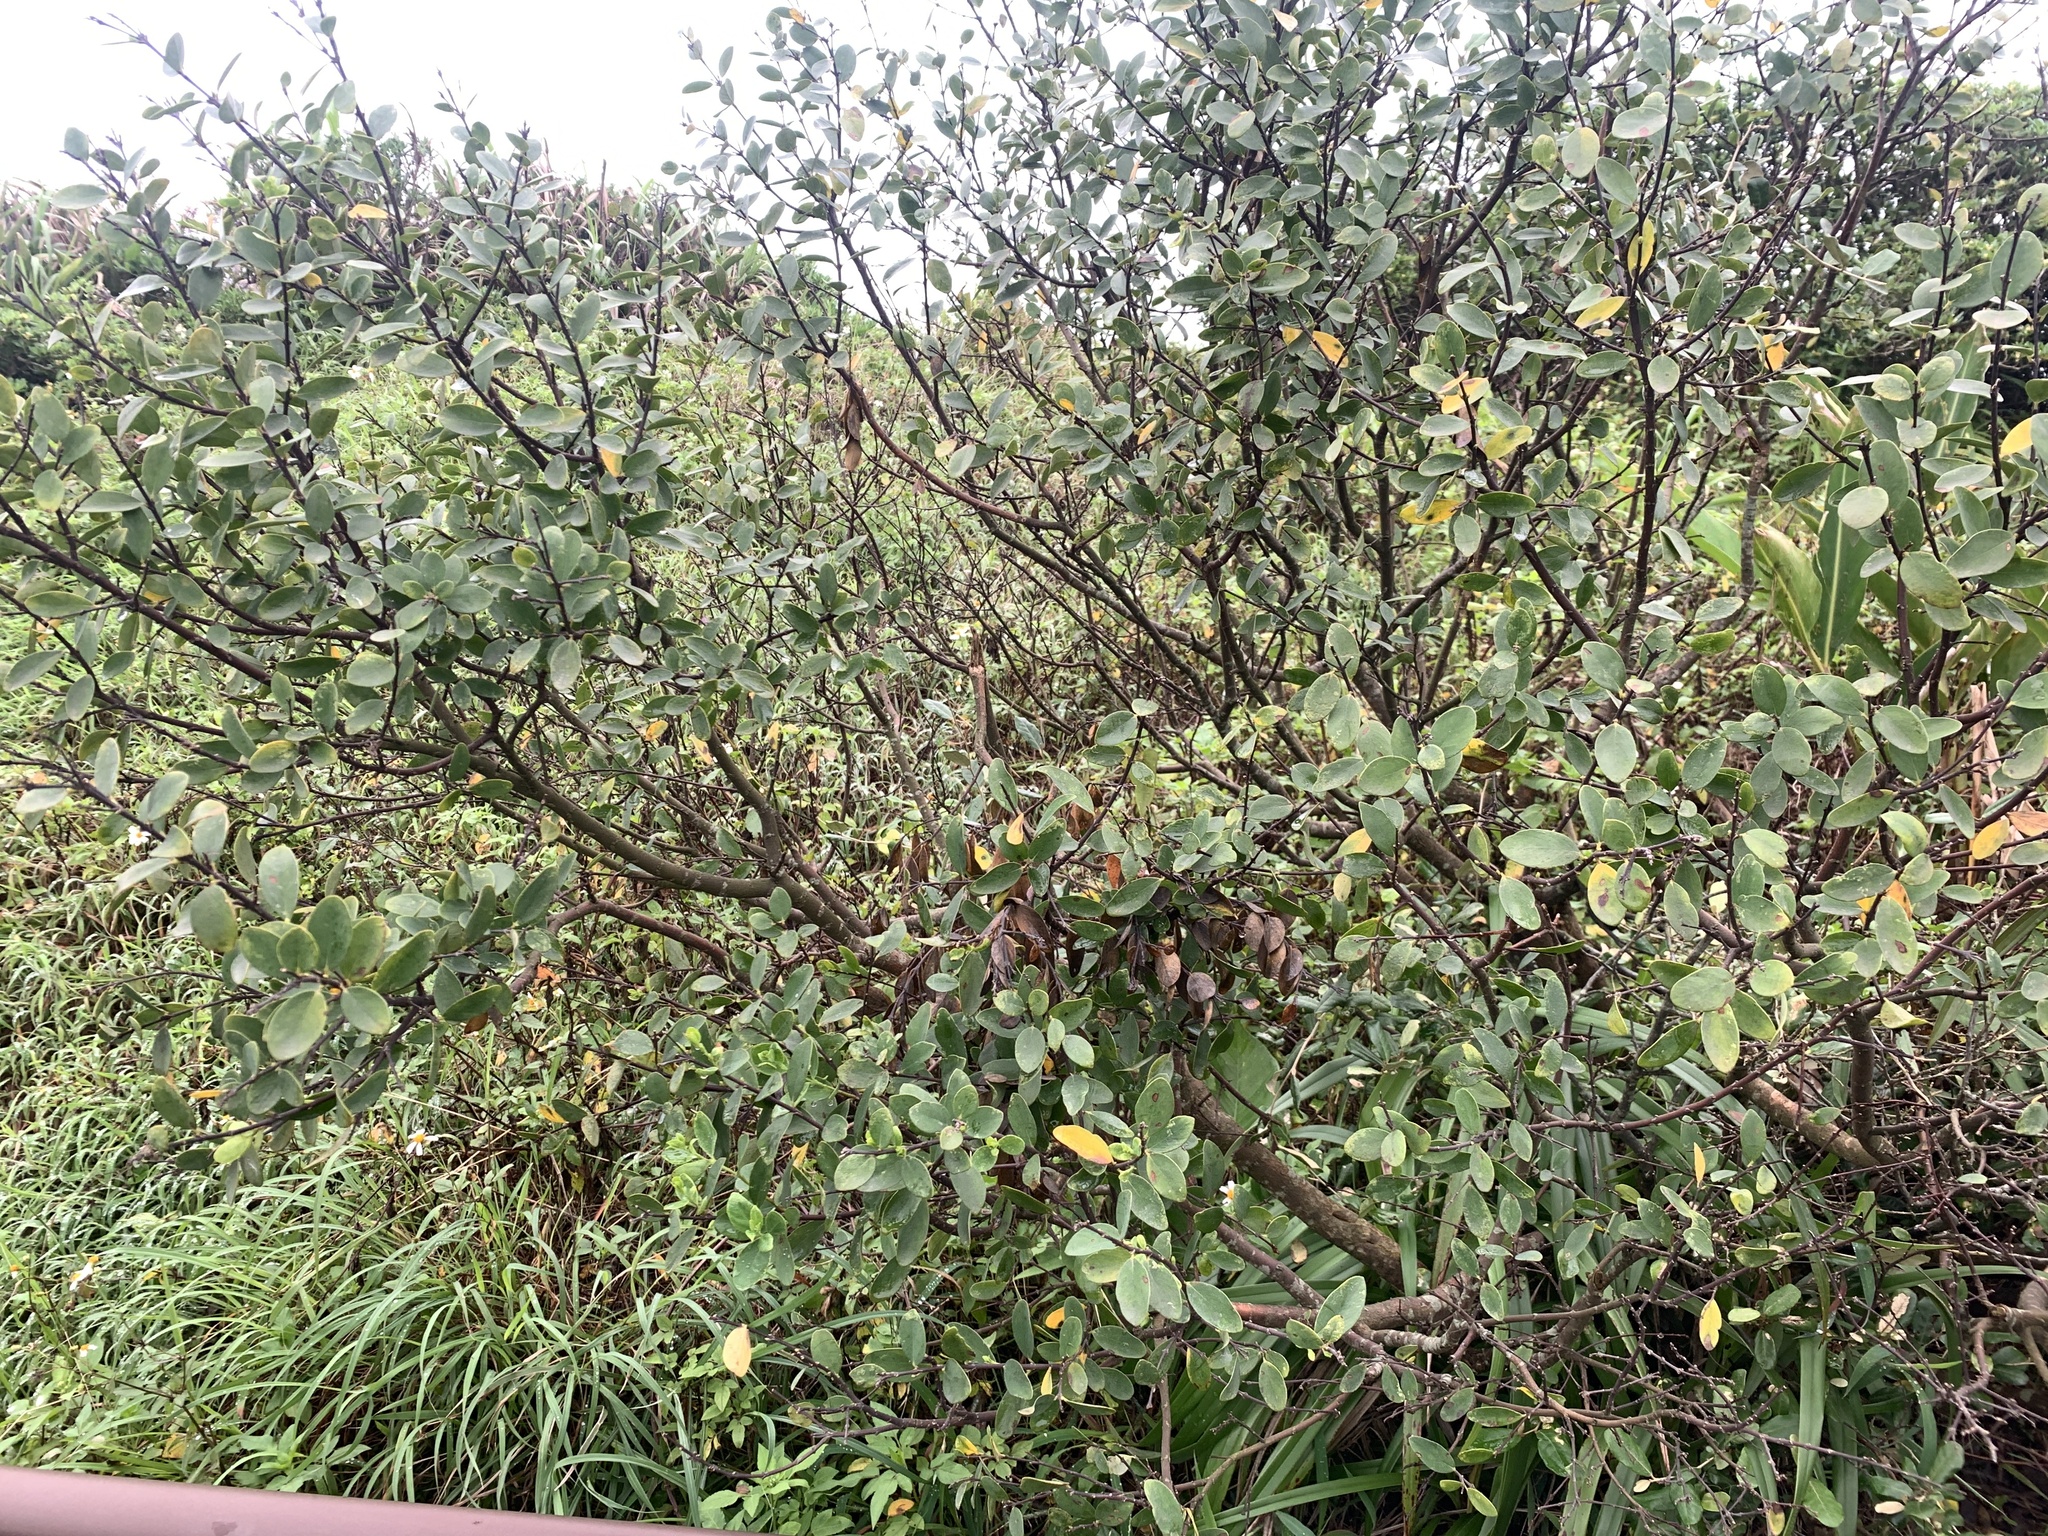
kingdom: Plantae
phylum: Tracheophyta
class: Magnoliopsida
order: Malvales
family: Thymelaeaceae
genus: Wikstroemia
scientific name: Wikstroemia indica
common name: Tiebush
